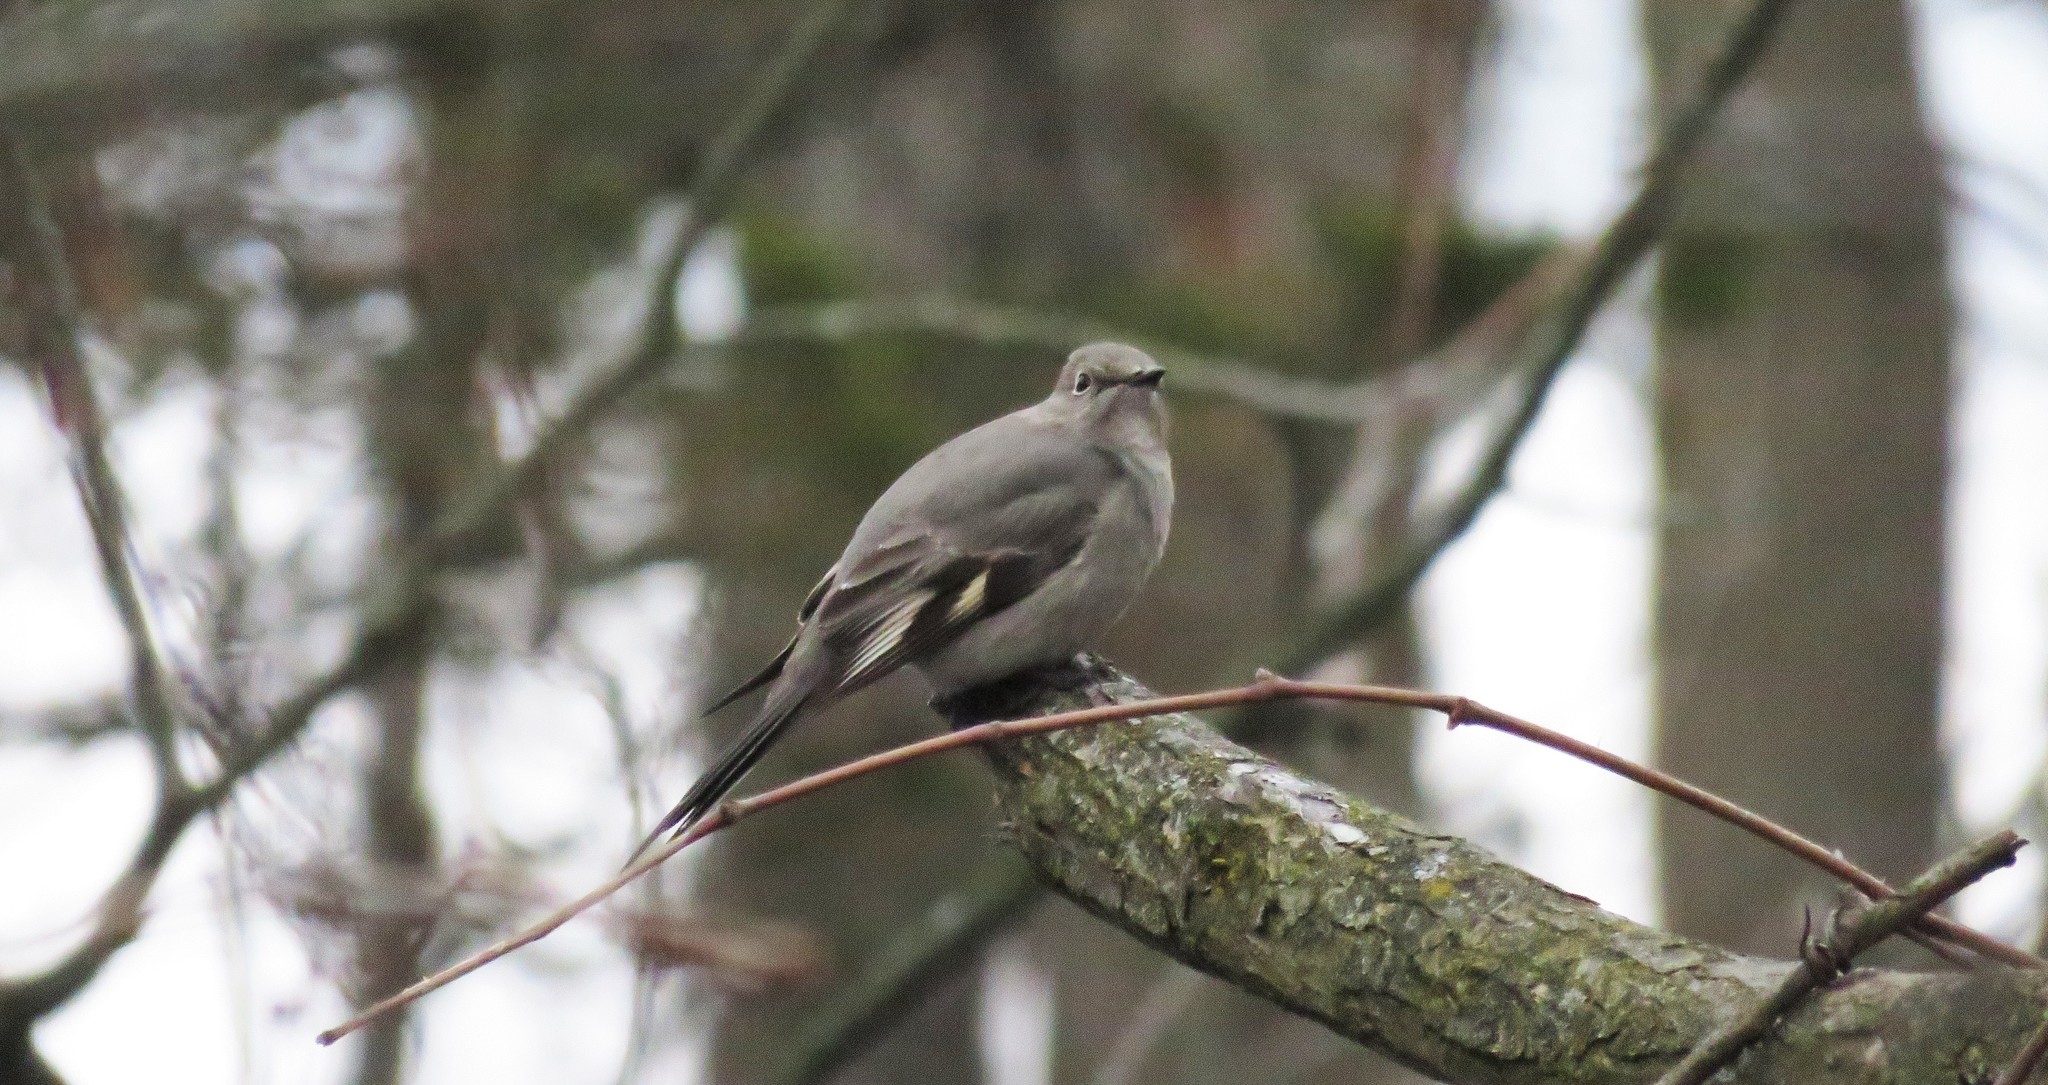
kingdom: Animalia
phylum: Chordata
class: Aves
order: Passeriformes
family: Turdidae
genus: Myadestes
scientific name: Myadestes townsendi
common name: Townsend's solitaire
